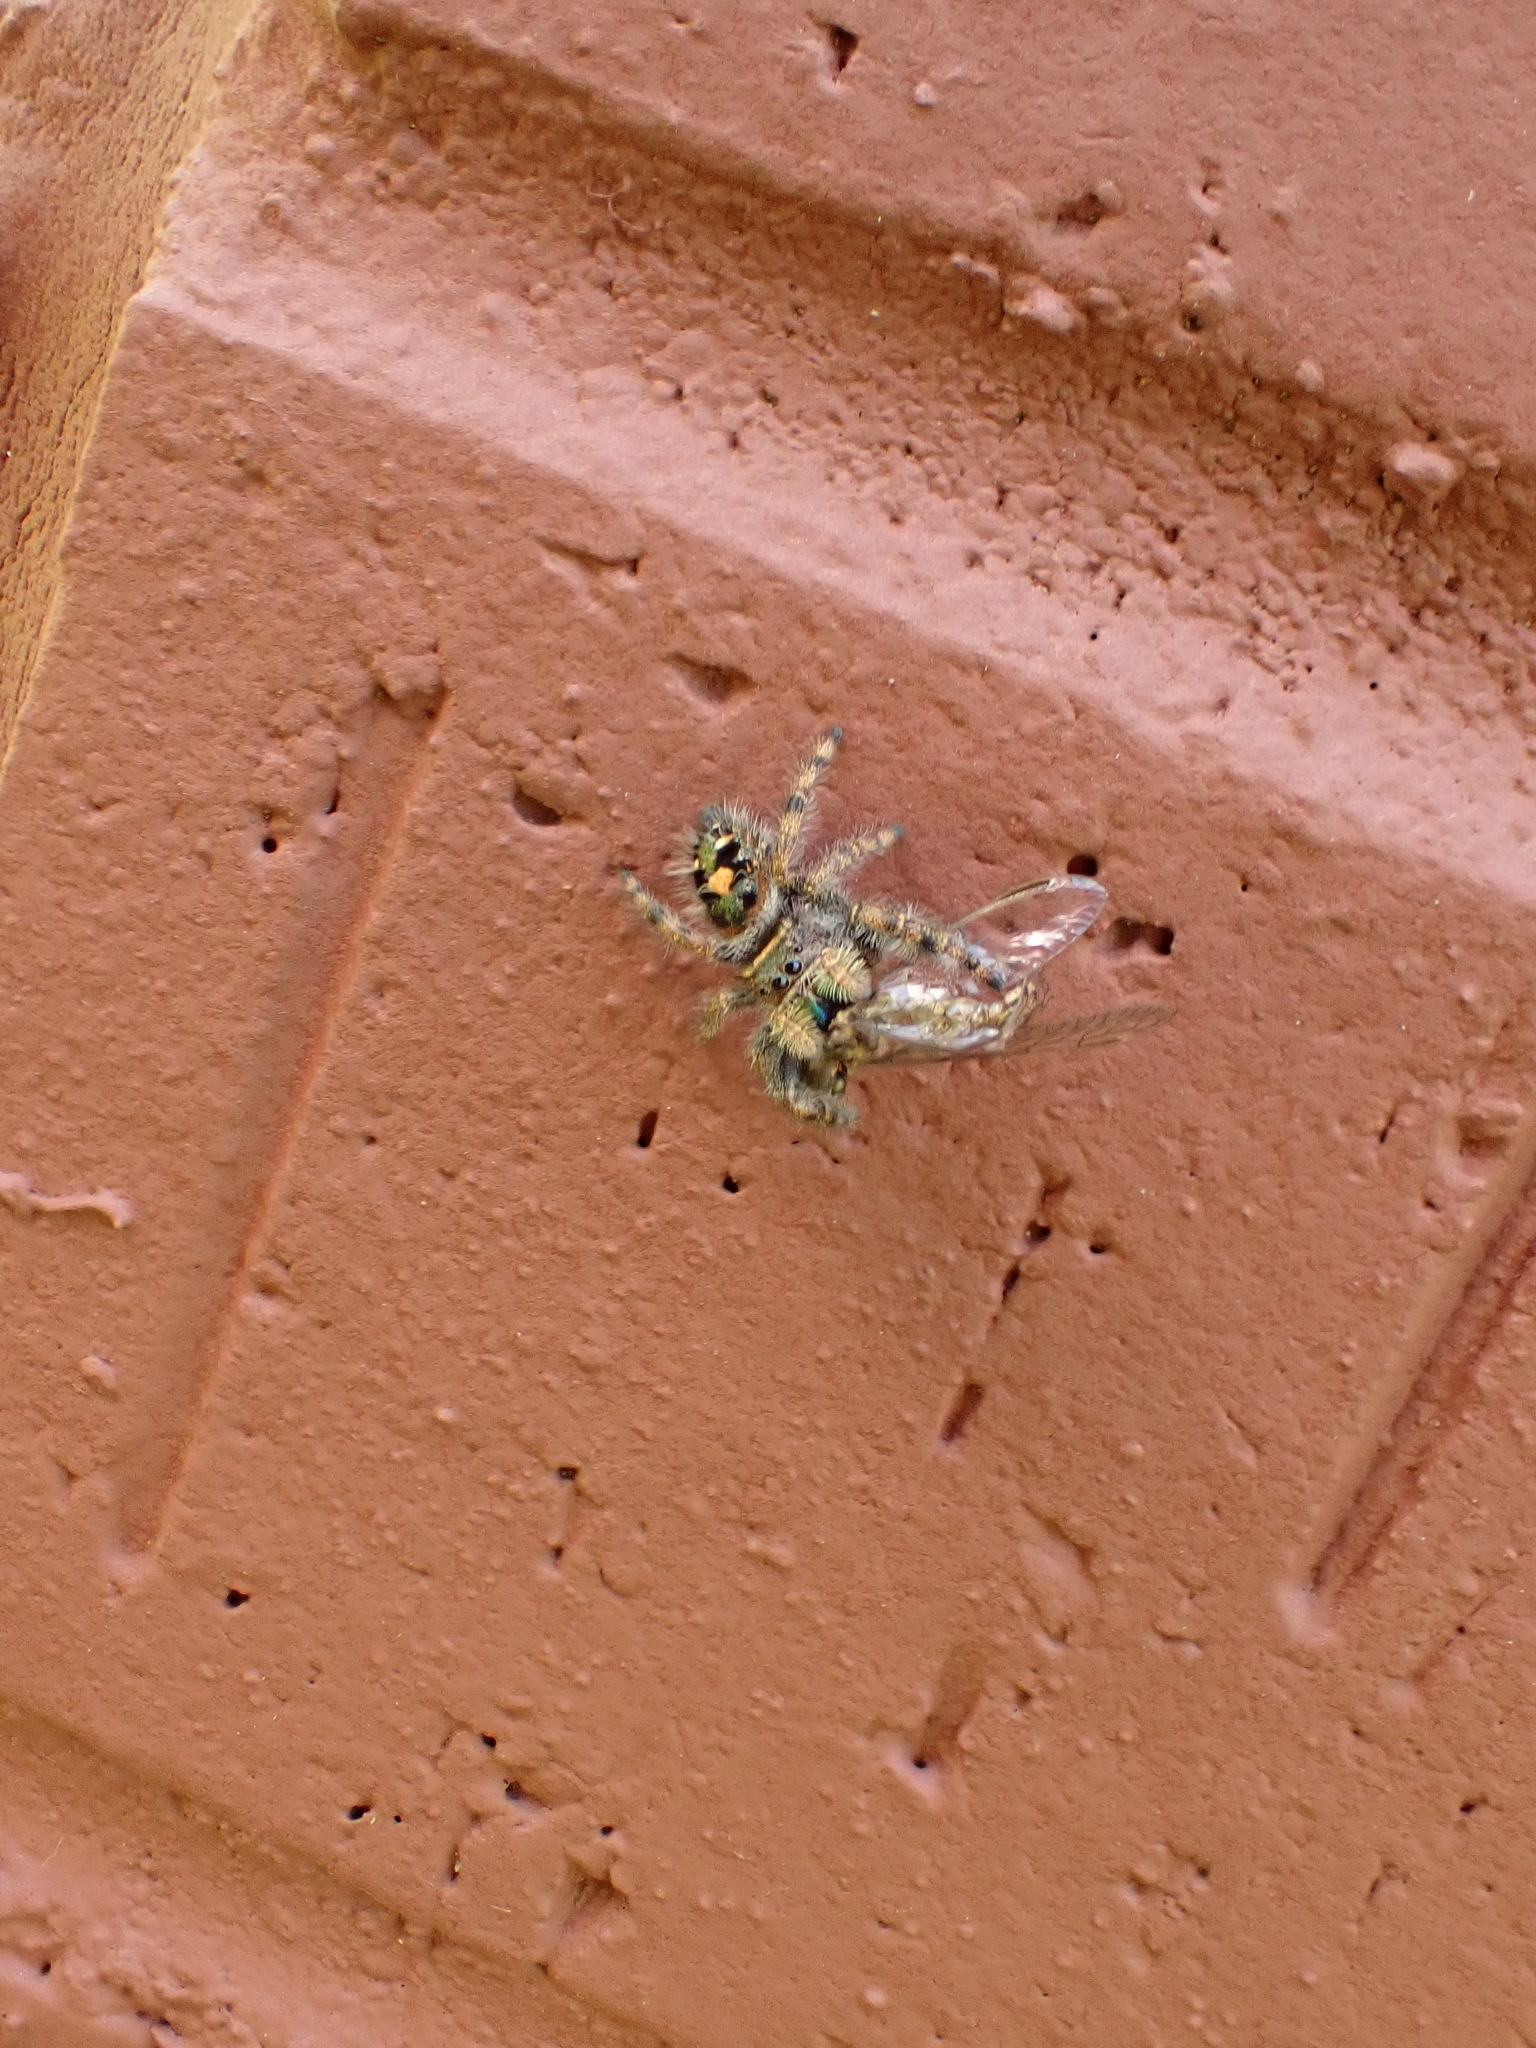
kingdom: Animalia
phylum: Arthropoda
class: Arachnida
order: Araneae
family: Salticidae
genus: Phidippus
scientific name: Phidippus audax
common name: Bold jumper
